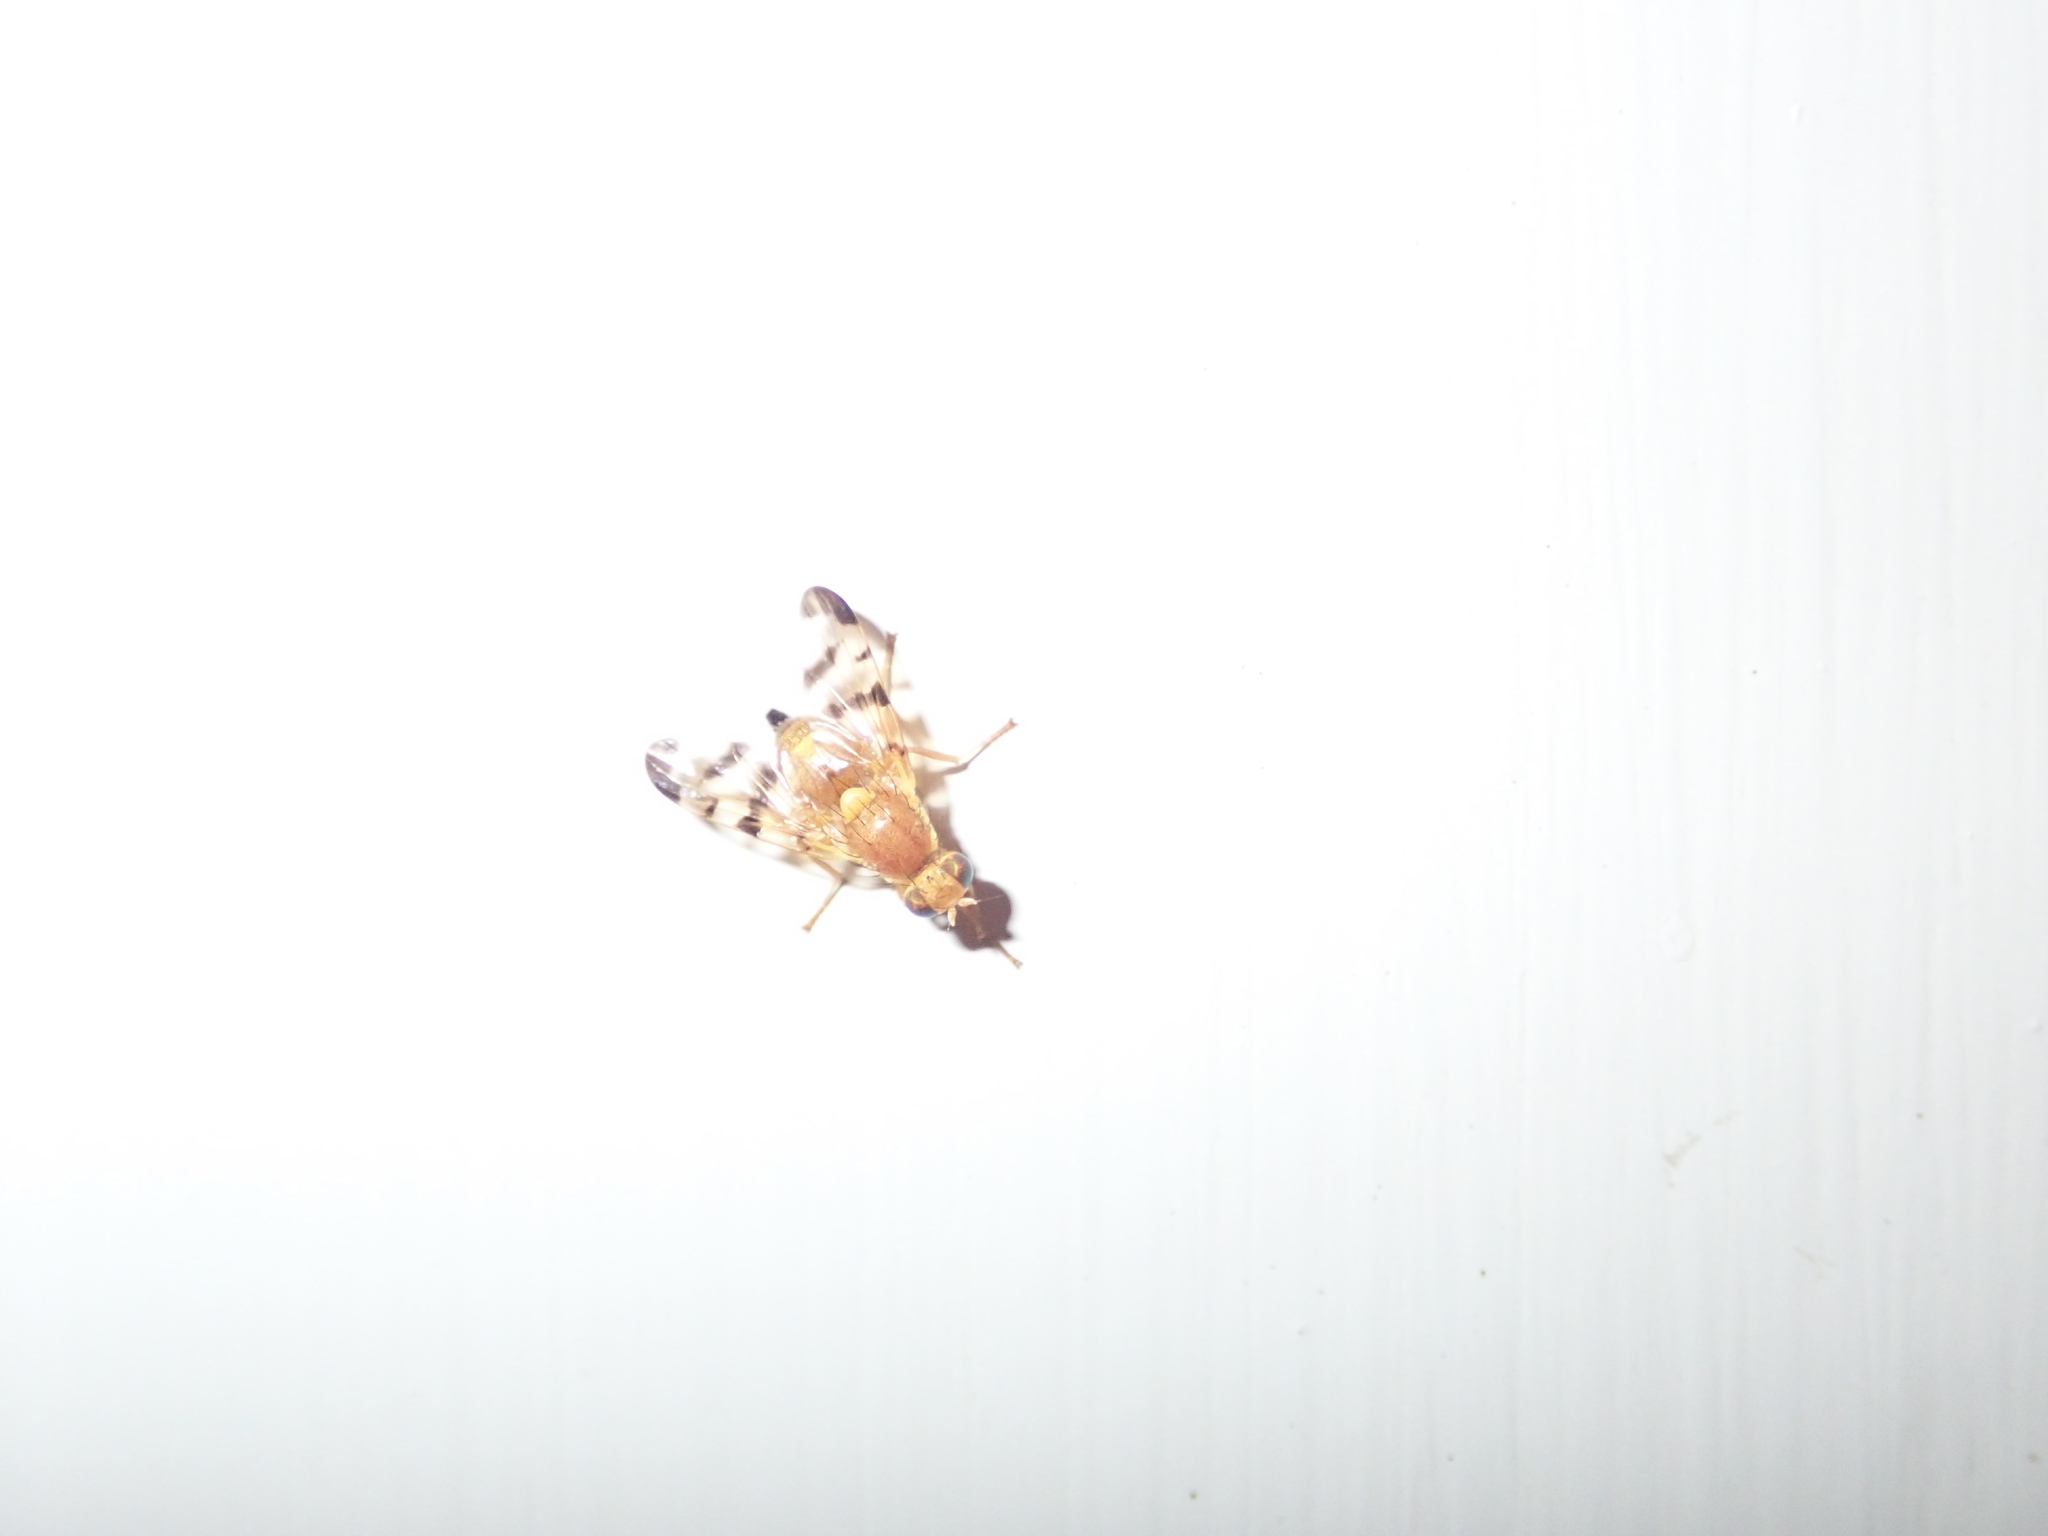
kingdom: Animalia
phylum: Arthropoda
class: Insecta
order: Diptera
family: Tephritidae
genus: Rhagoletis
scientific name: Rhagoletis meigenii
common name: Fruit fly
